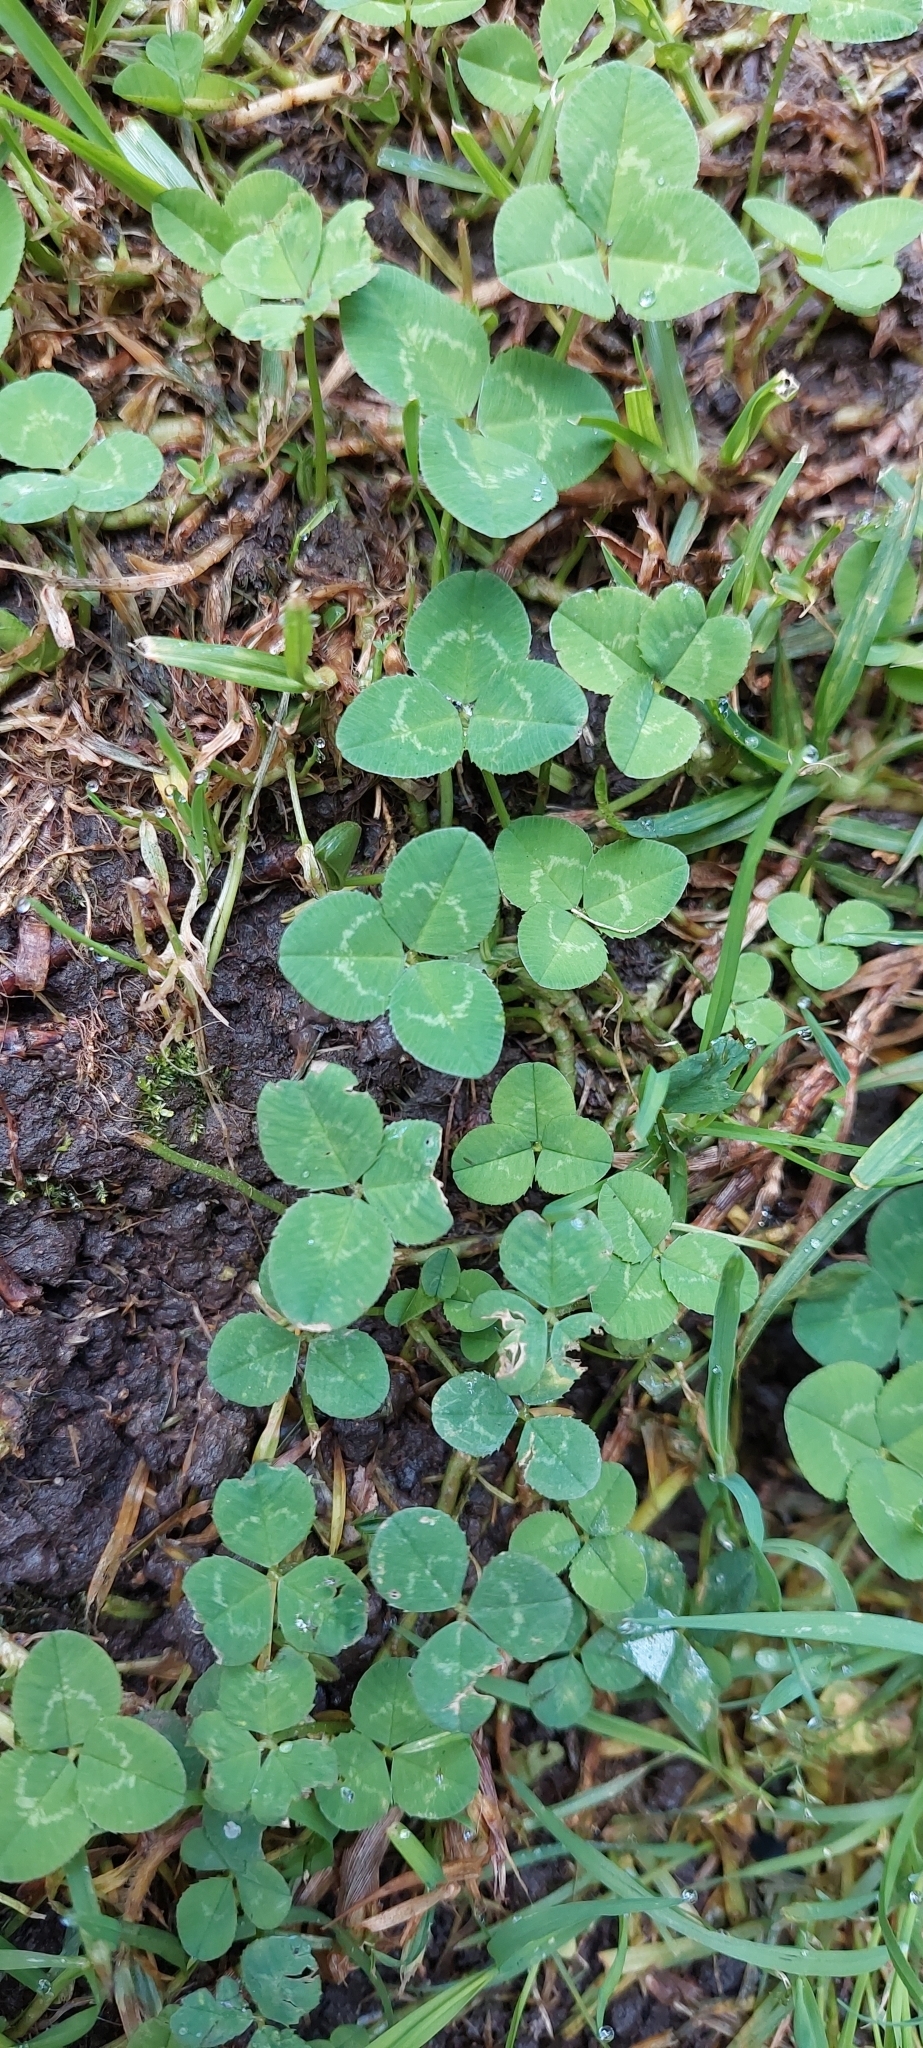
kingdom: Plantae
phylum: Tracheophyta
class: Magnoliopsida
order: Fabales
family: Fabaceae
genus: Trifolium
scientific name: Trifolium repens
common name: White clover
